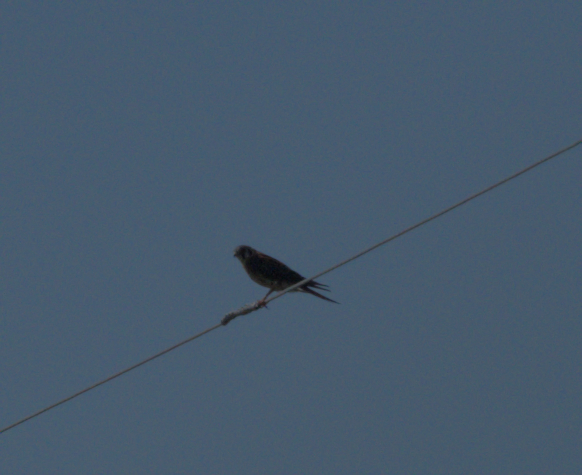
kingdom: Animalia
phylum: Chordata
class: Aves
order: Falconiformes
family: Falconidae
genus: Falco
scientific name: Falco sparverius
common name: American kestrel
